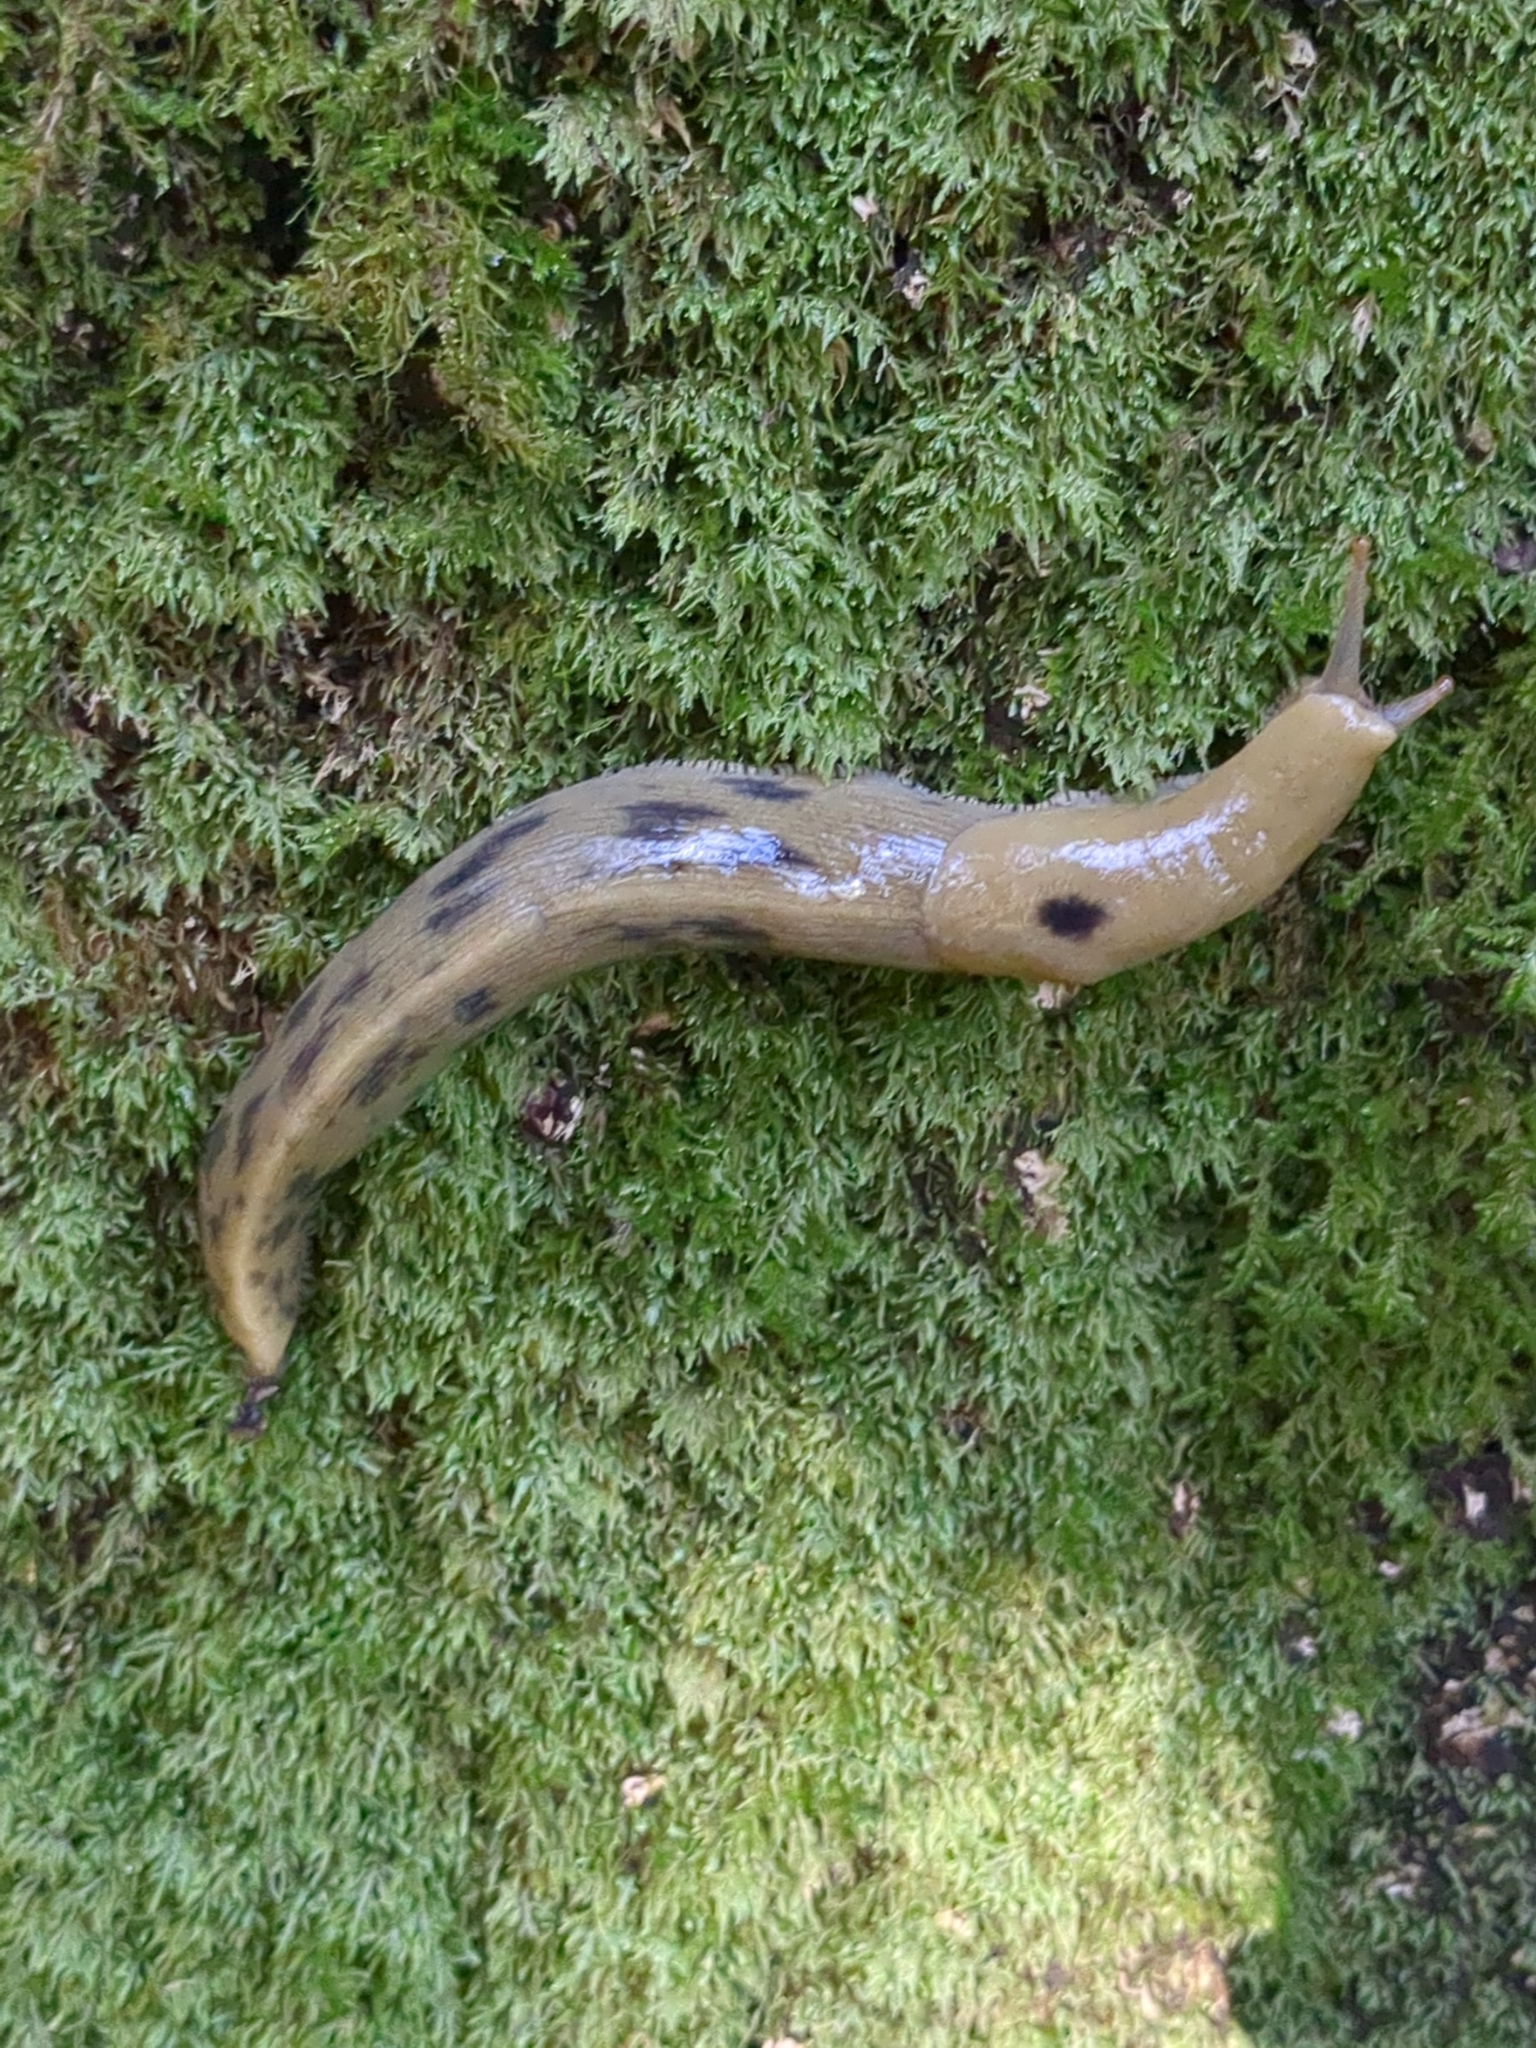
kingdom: Animalia
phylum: Mollusca
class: Gastropoda
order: Stylommatophora
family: Ariolimacidae
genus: Ariolimax
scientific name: Ariolimax buttoni
